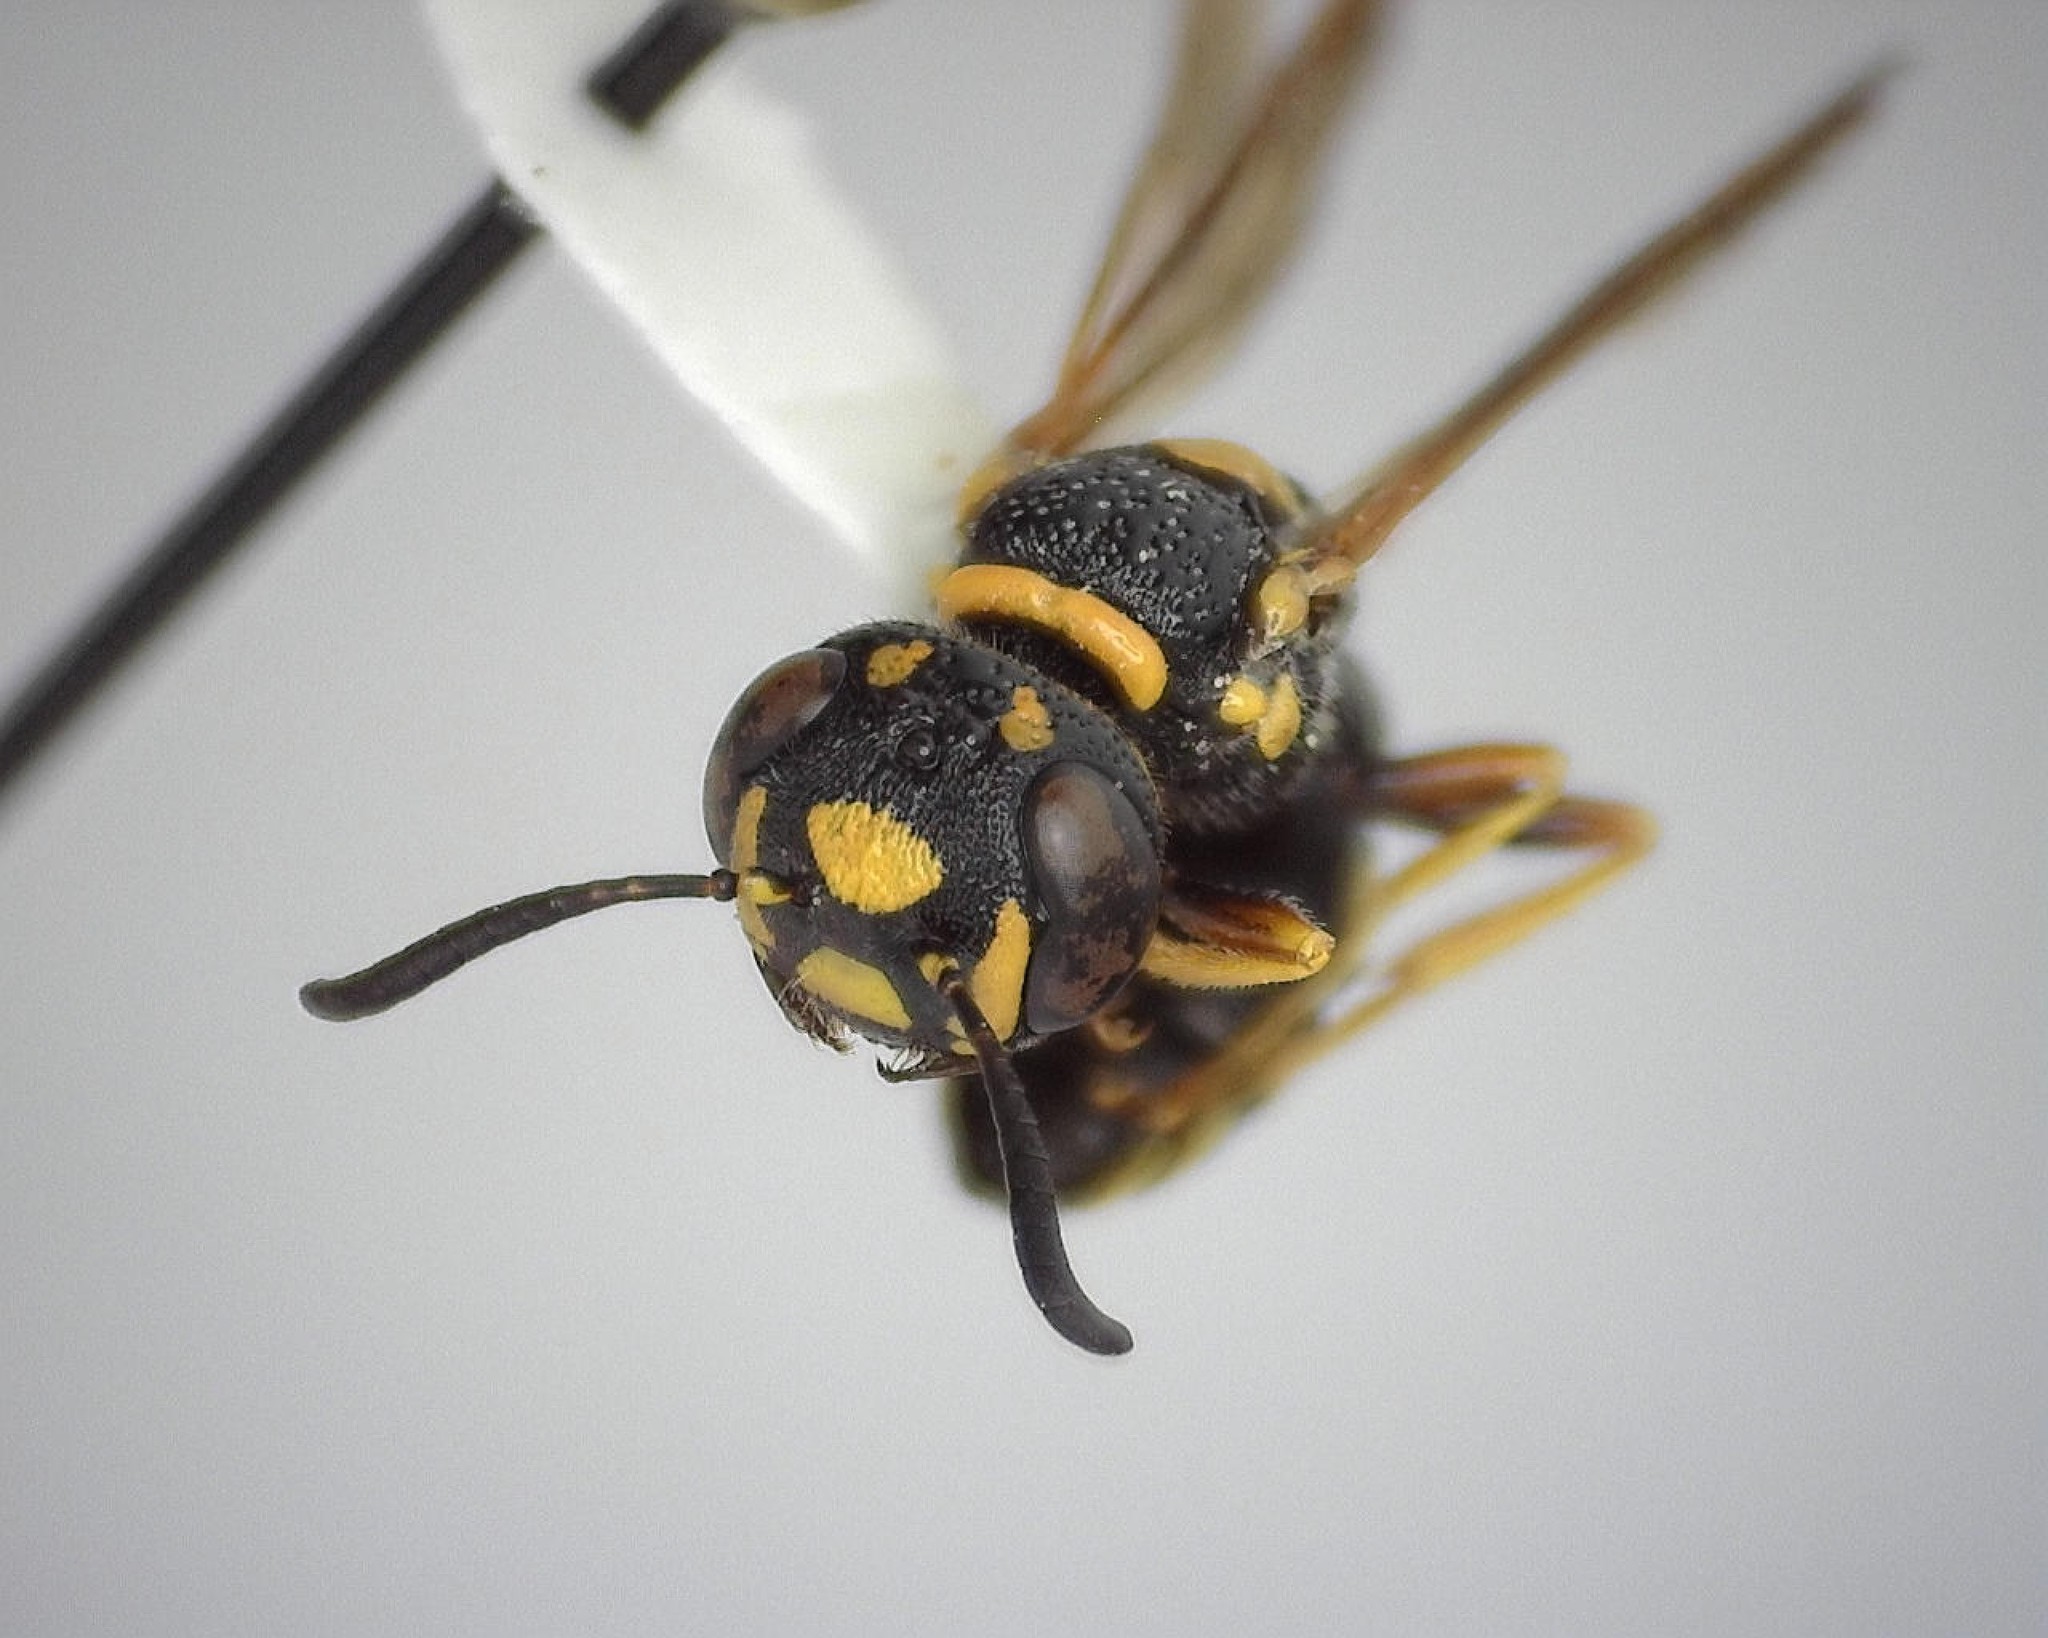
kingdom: Animalia
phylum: Arthropoda
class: Insecta
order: Hymenoptera
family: Crabronidae
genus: Philanthus
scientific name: Philanthus gibbosus
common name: Humped beewolf
